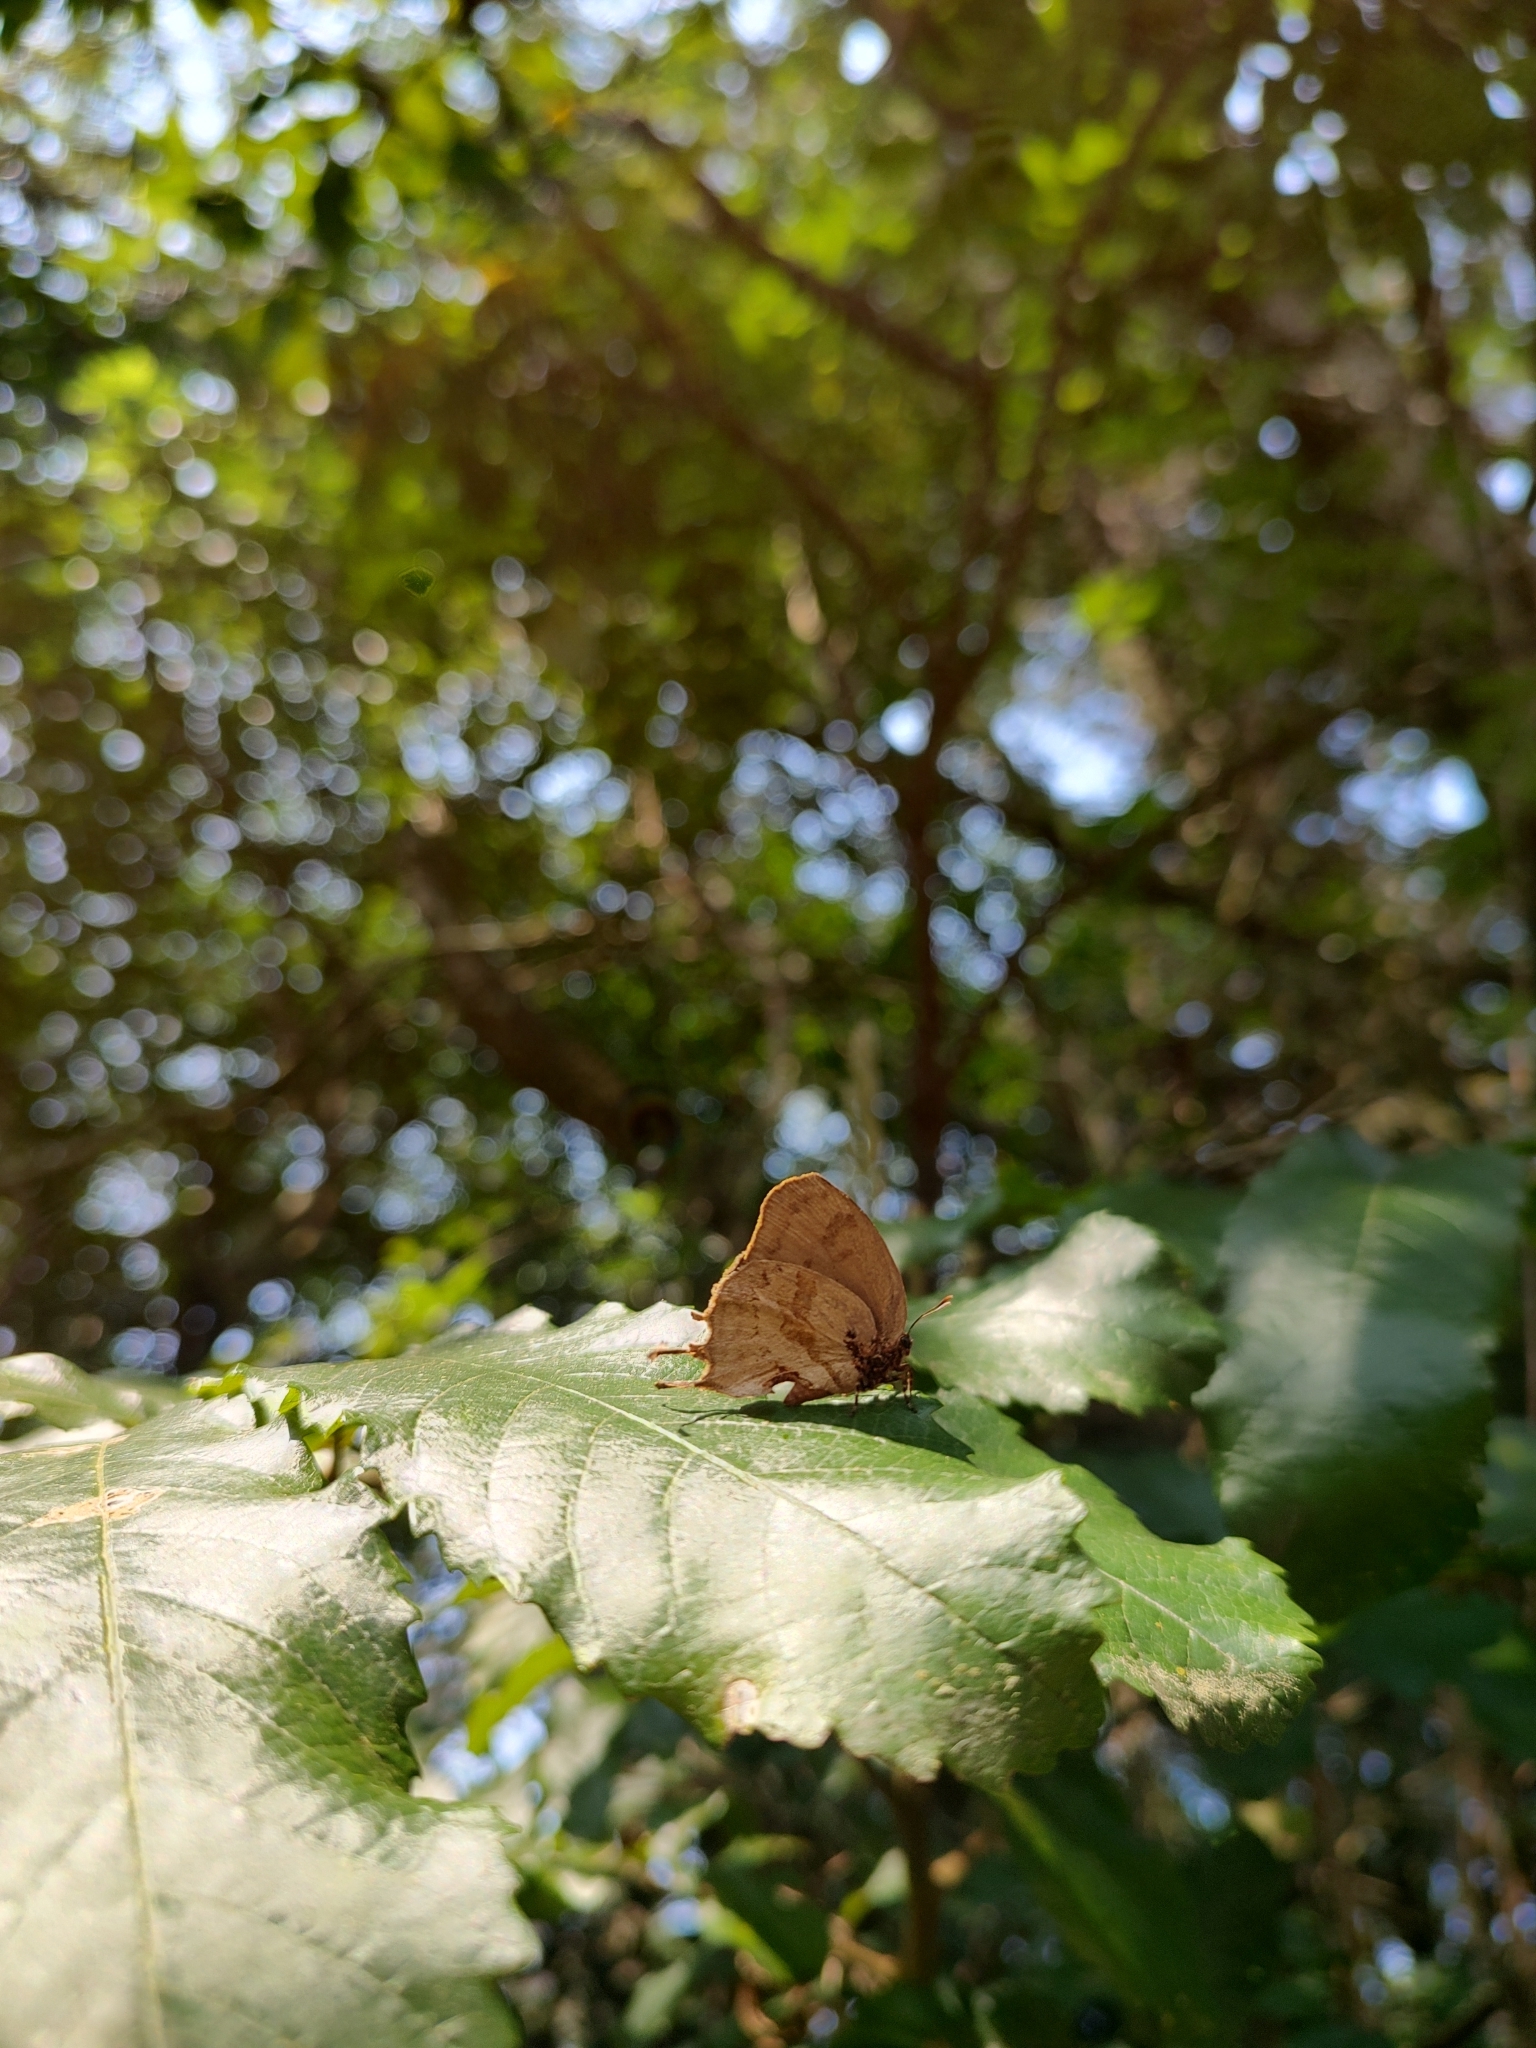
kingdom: Animalia
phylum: Arthropoda
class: Insecta
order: Lepidoptera
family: Lycaenidae
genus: Evenus
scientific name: Evenus
